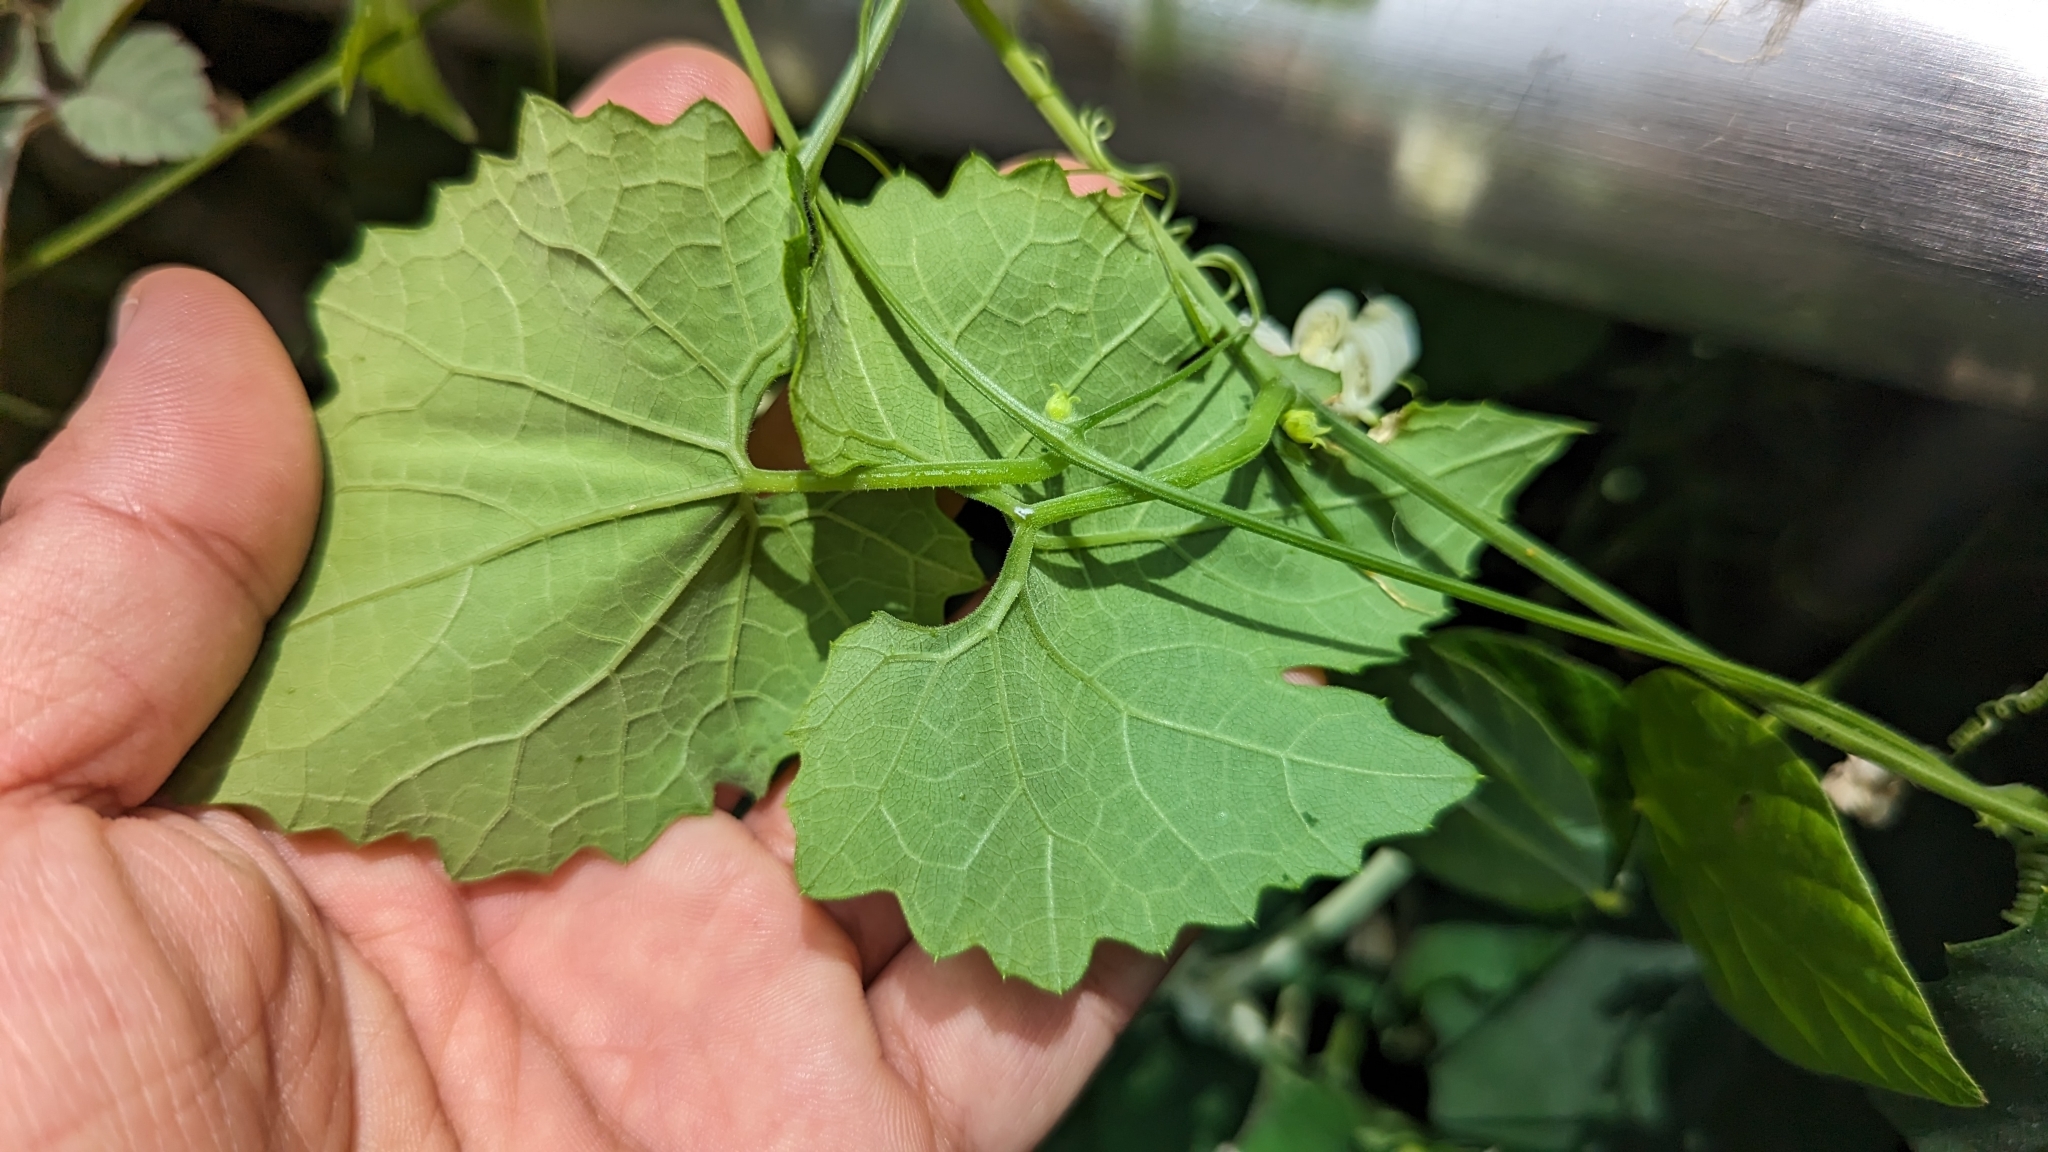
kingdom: Plantae
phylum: Tracheophyta
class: Magnoliopsida
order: Cucurbitales
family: Cucurbitaceae
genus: Trichosanthes
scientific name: Trichosanthes cucumeroides
